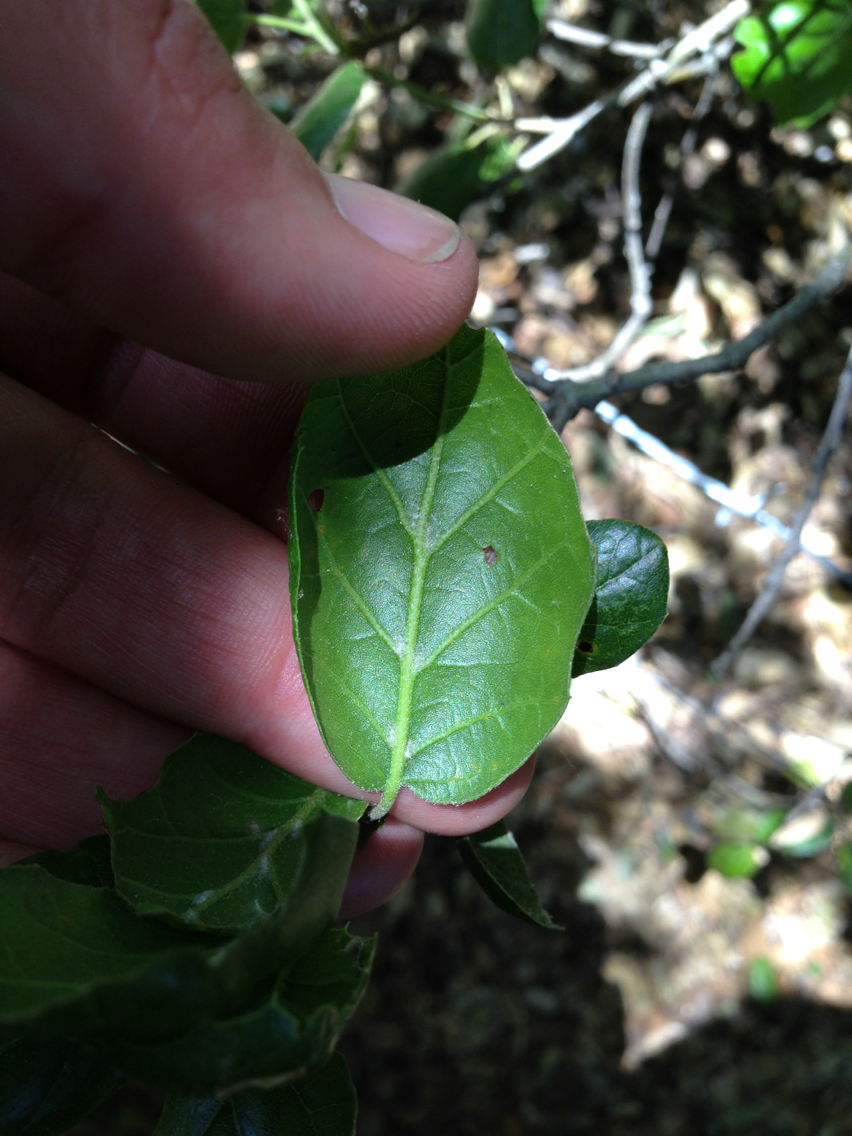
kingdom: Plantae
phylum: Tracheophyta
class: Magnoliopsida
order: Fagales
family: Fagaceae
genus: Quercus
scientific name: Quercus agrifolia
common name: California live oak
